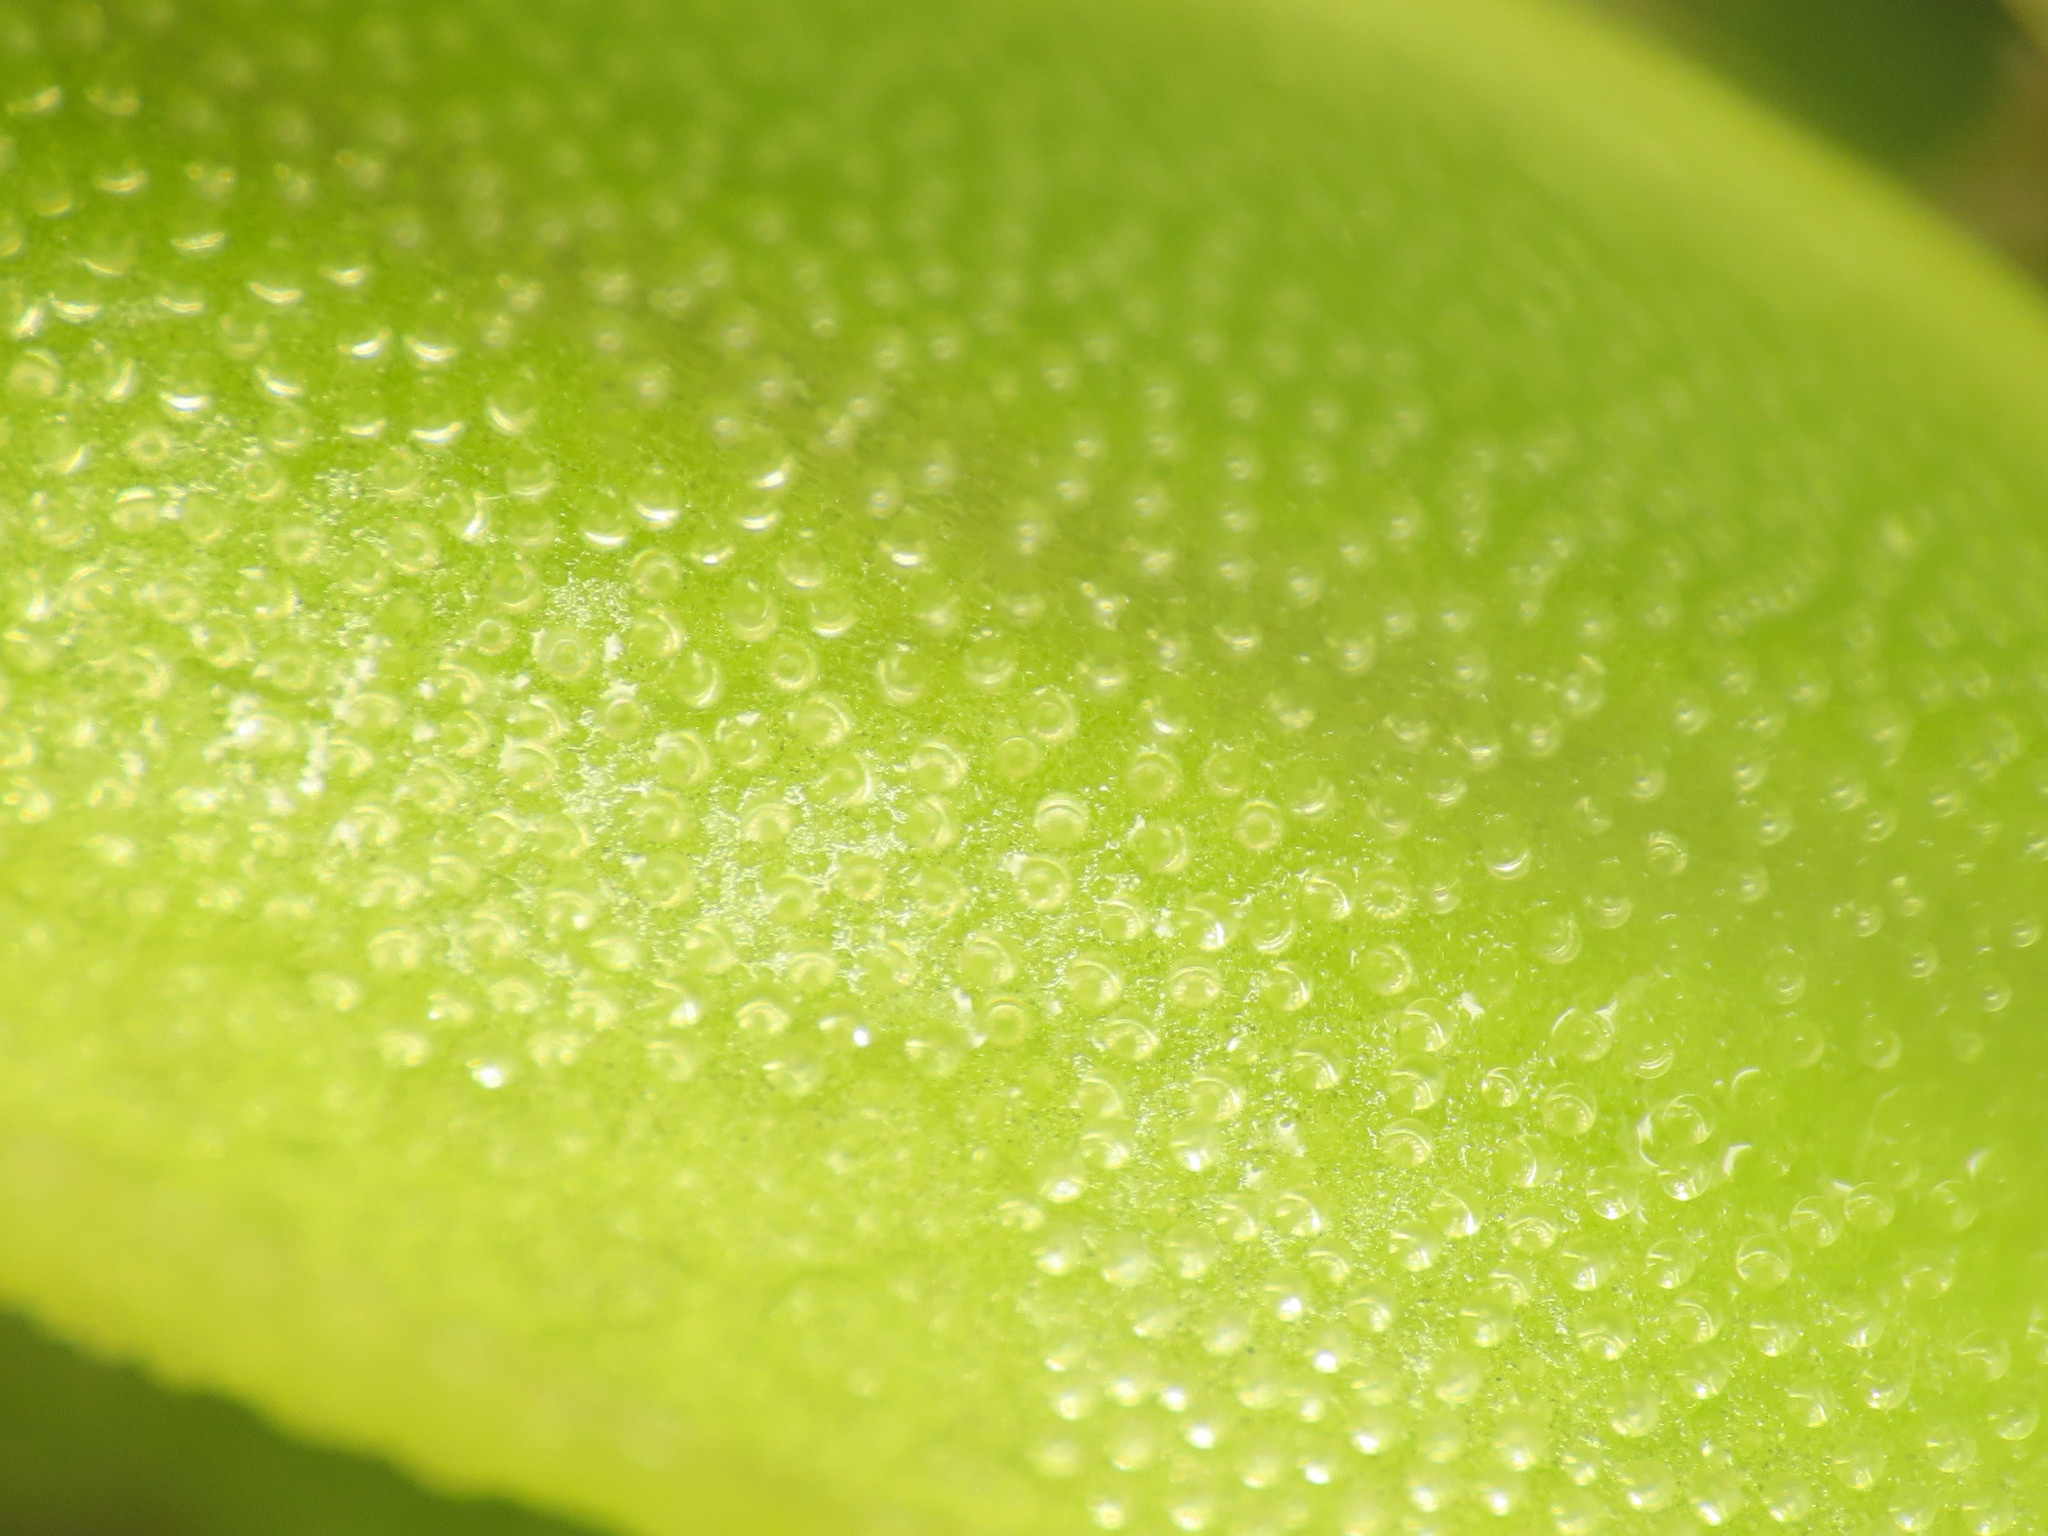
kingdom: Plantae
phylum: Tracheophyta
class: Magnoliopsida
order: Lamiales
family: Lentibulariaceae
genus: Pinguicula
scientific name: Pinguicula vulgaris
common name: Common butterwort
